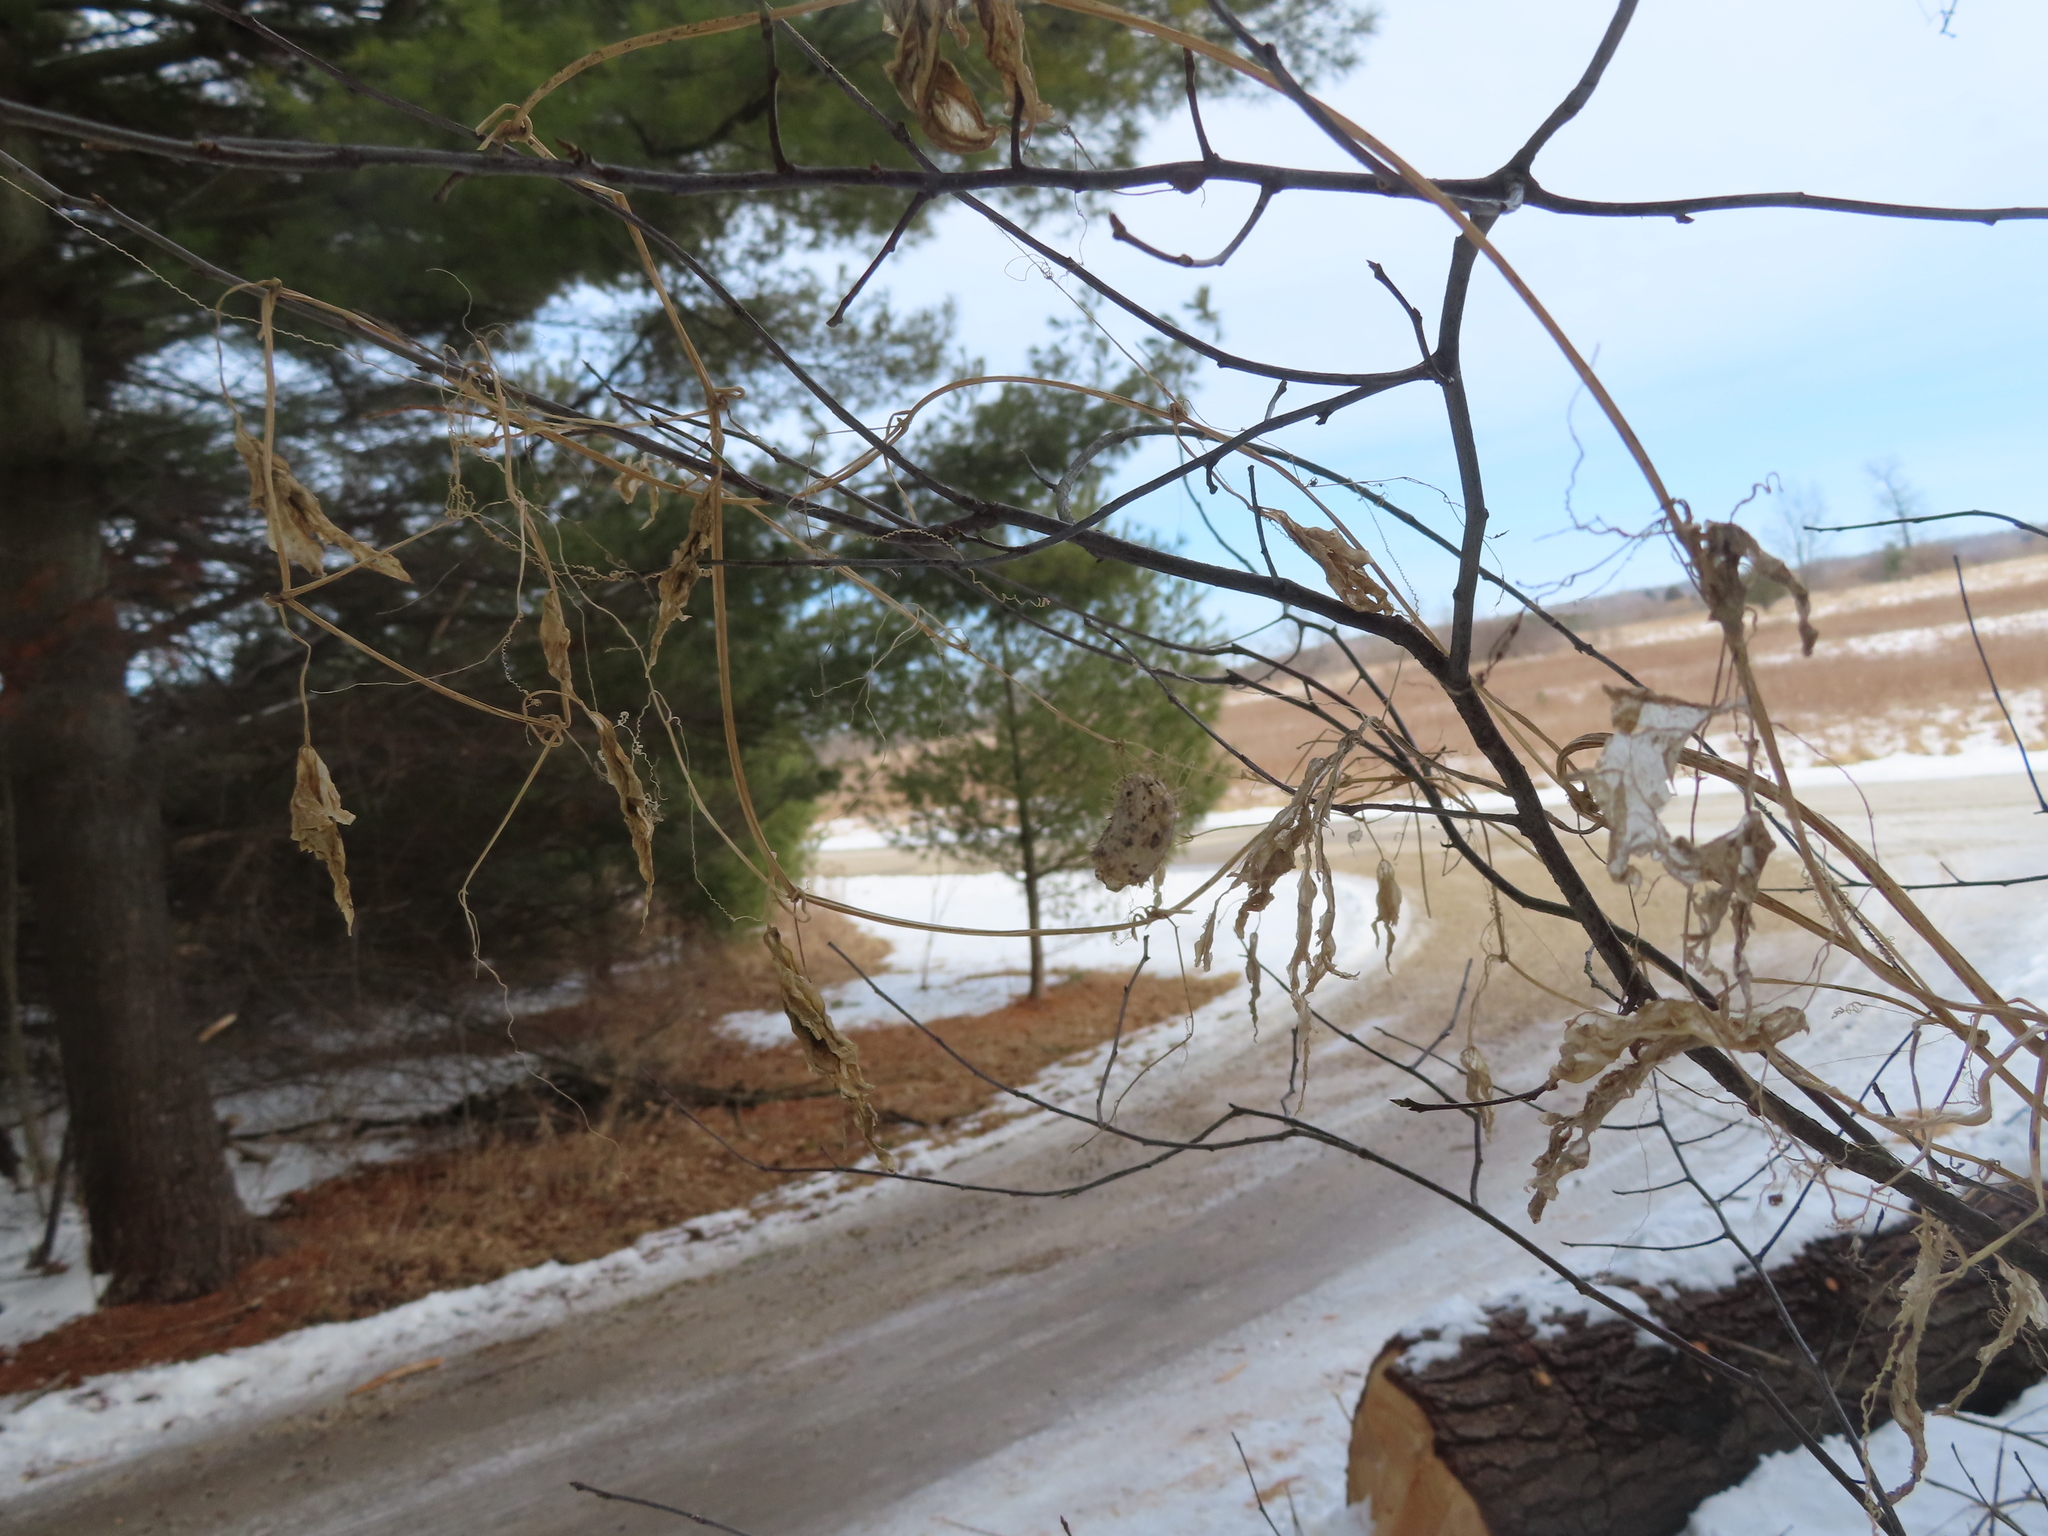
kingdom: Plantae
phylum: Tracheophyta
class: Magnoliopsida
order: Cucurbitales
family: Cucurbitaceae
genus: Echinocystis
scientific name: Echinocystis lobata
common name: Wild cucumber
